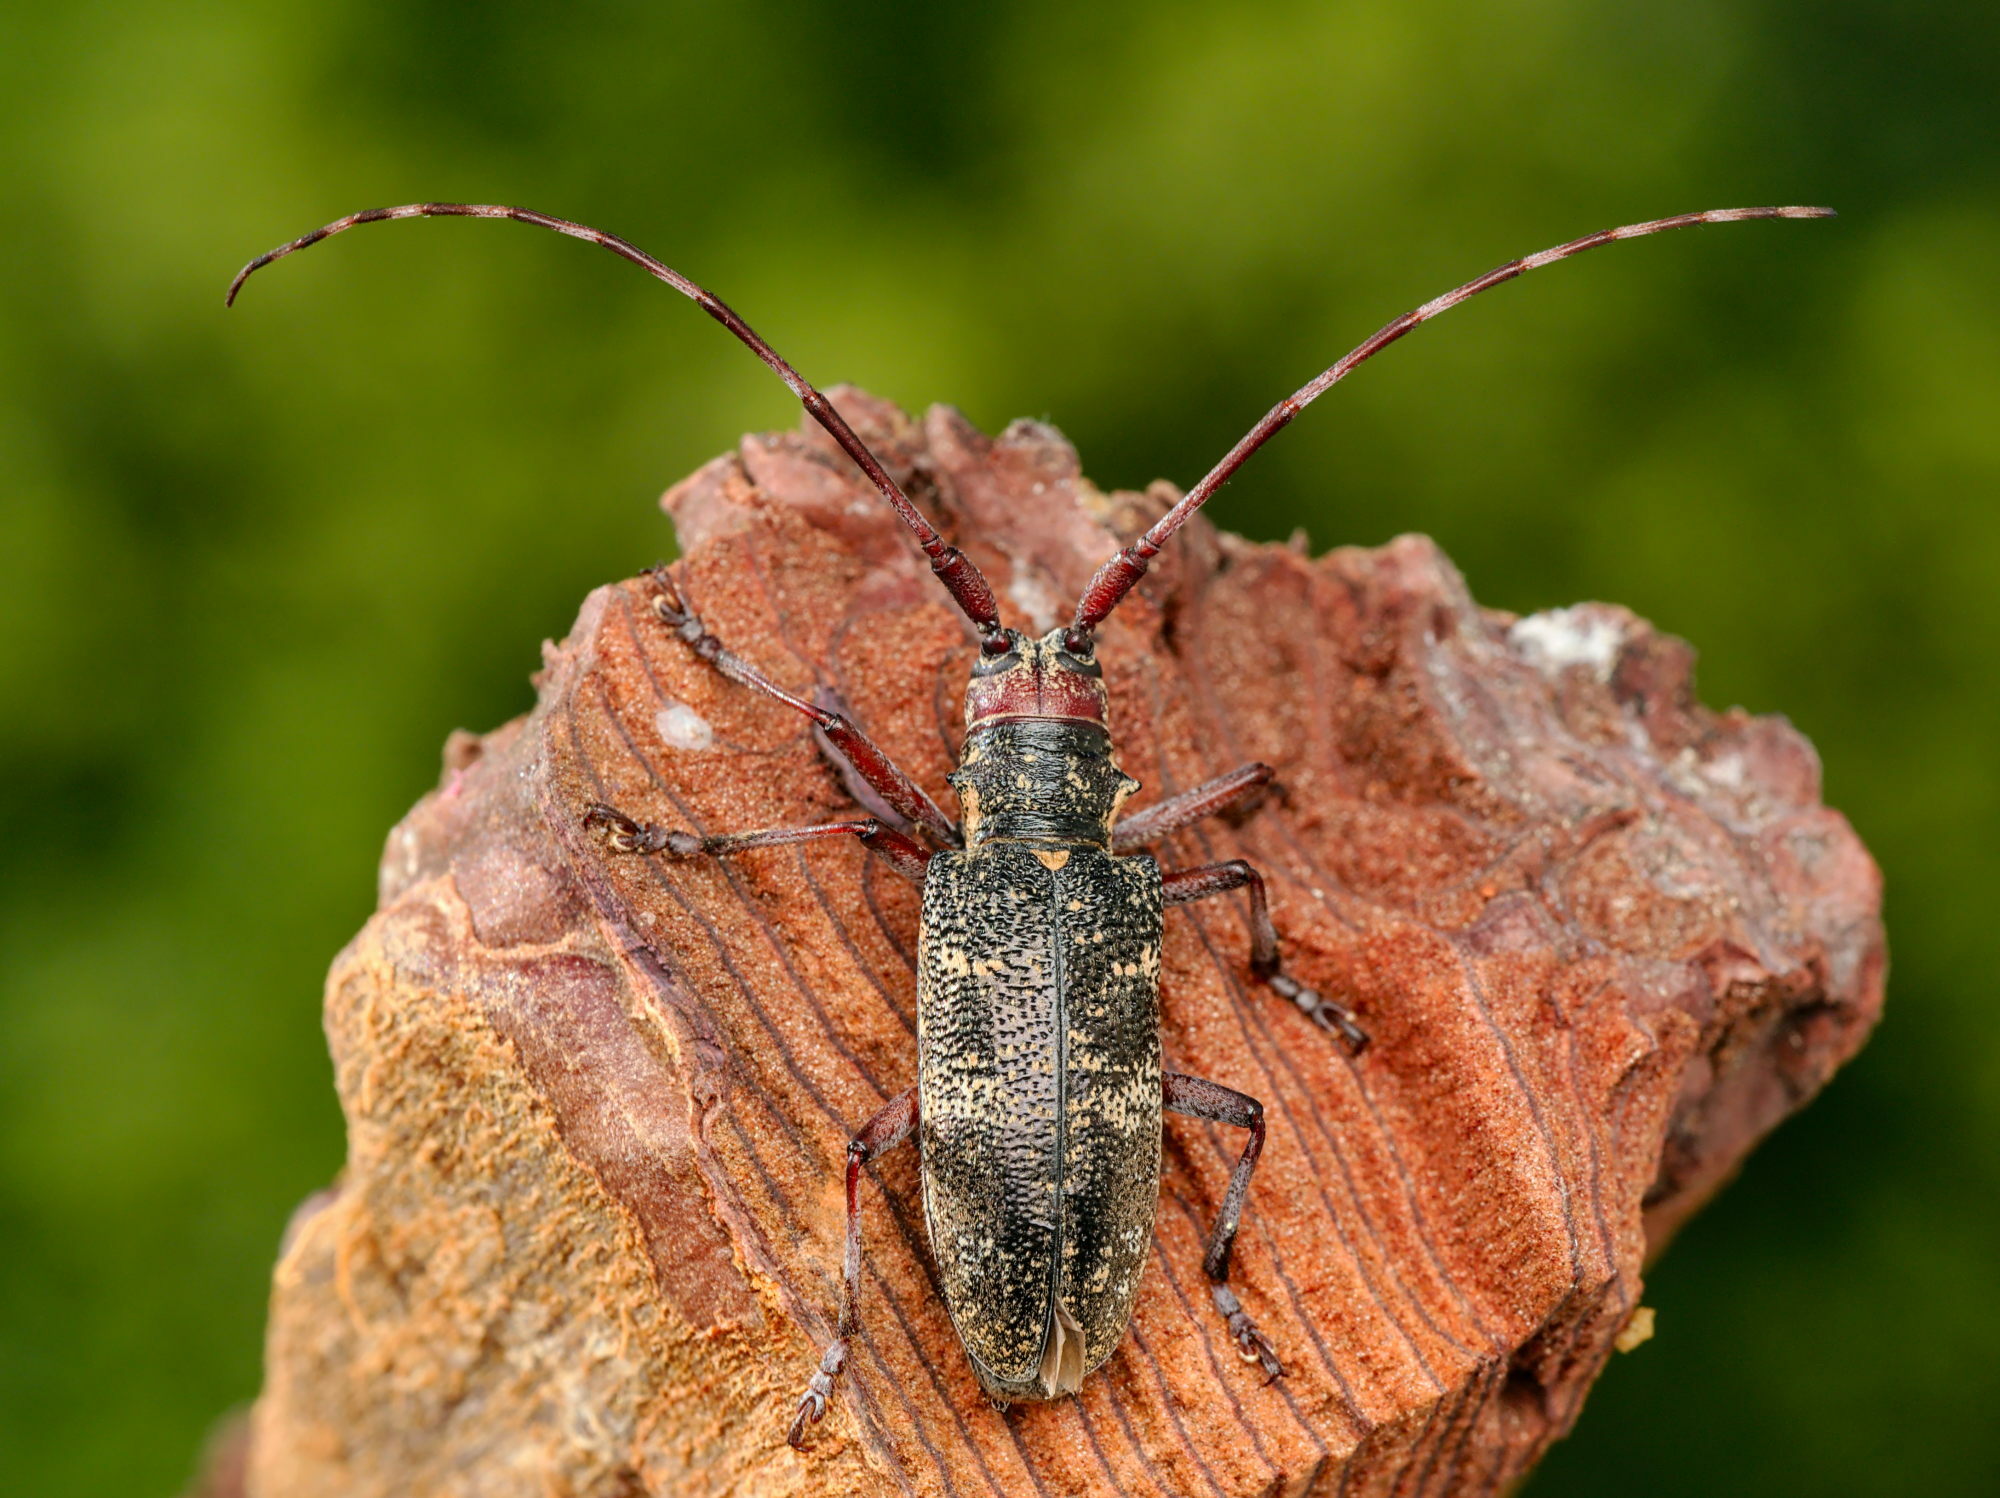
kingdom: Animalia
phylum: Arthropoda
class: Insecta
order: Coleoptera
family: Cerambycidae
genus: Monochamus
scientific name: Monochamus galloprovincialis
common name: Pine sawyer
